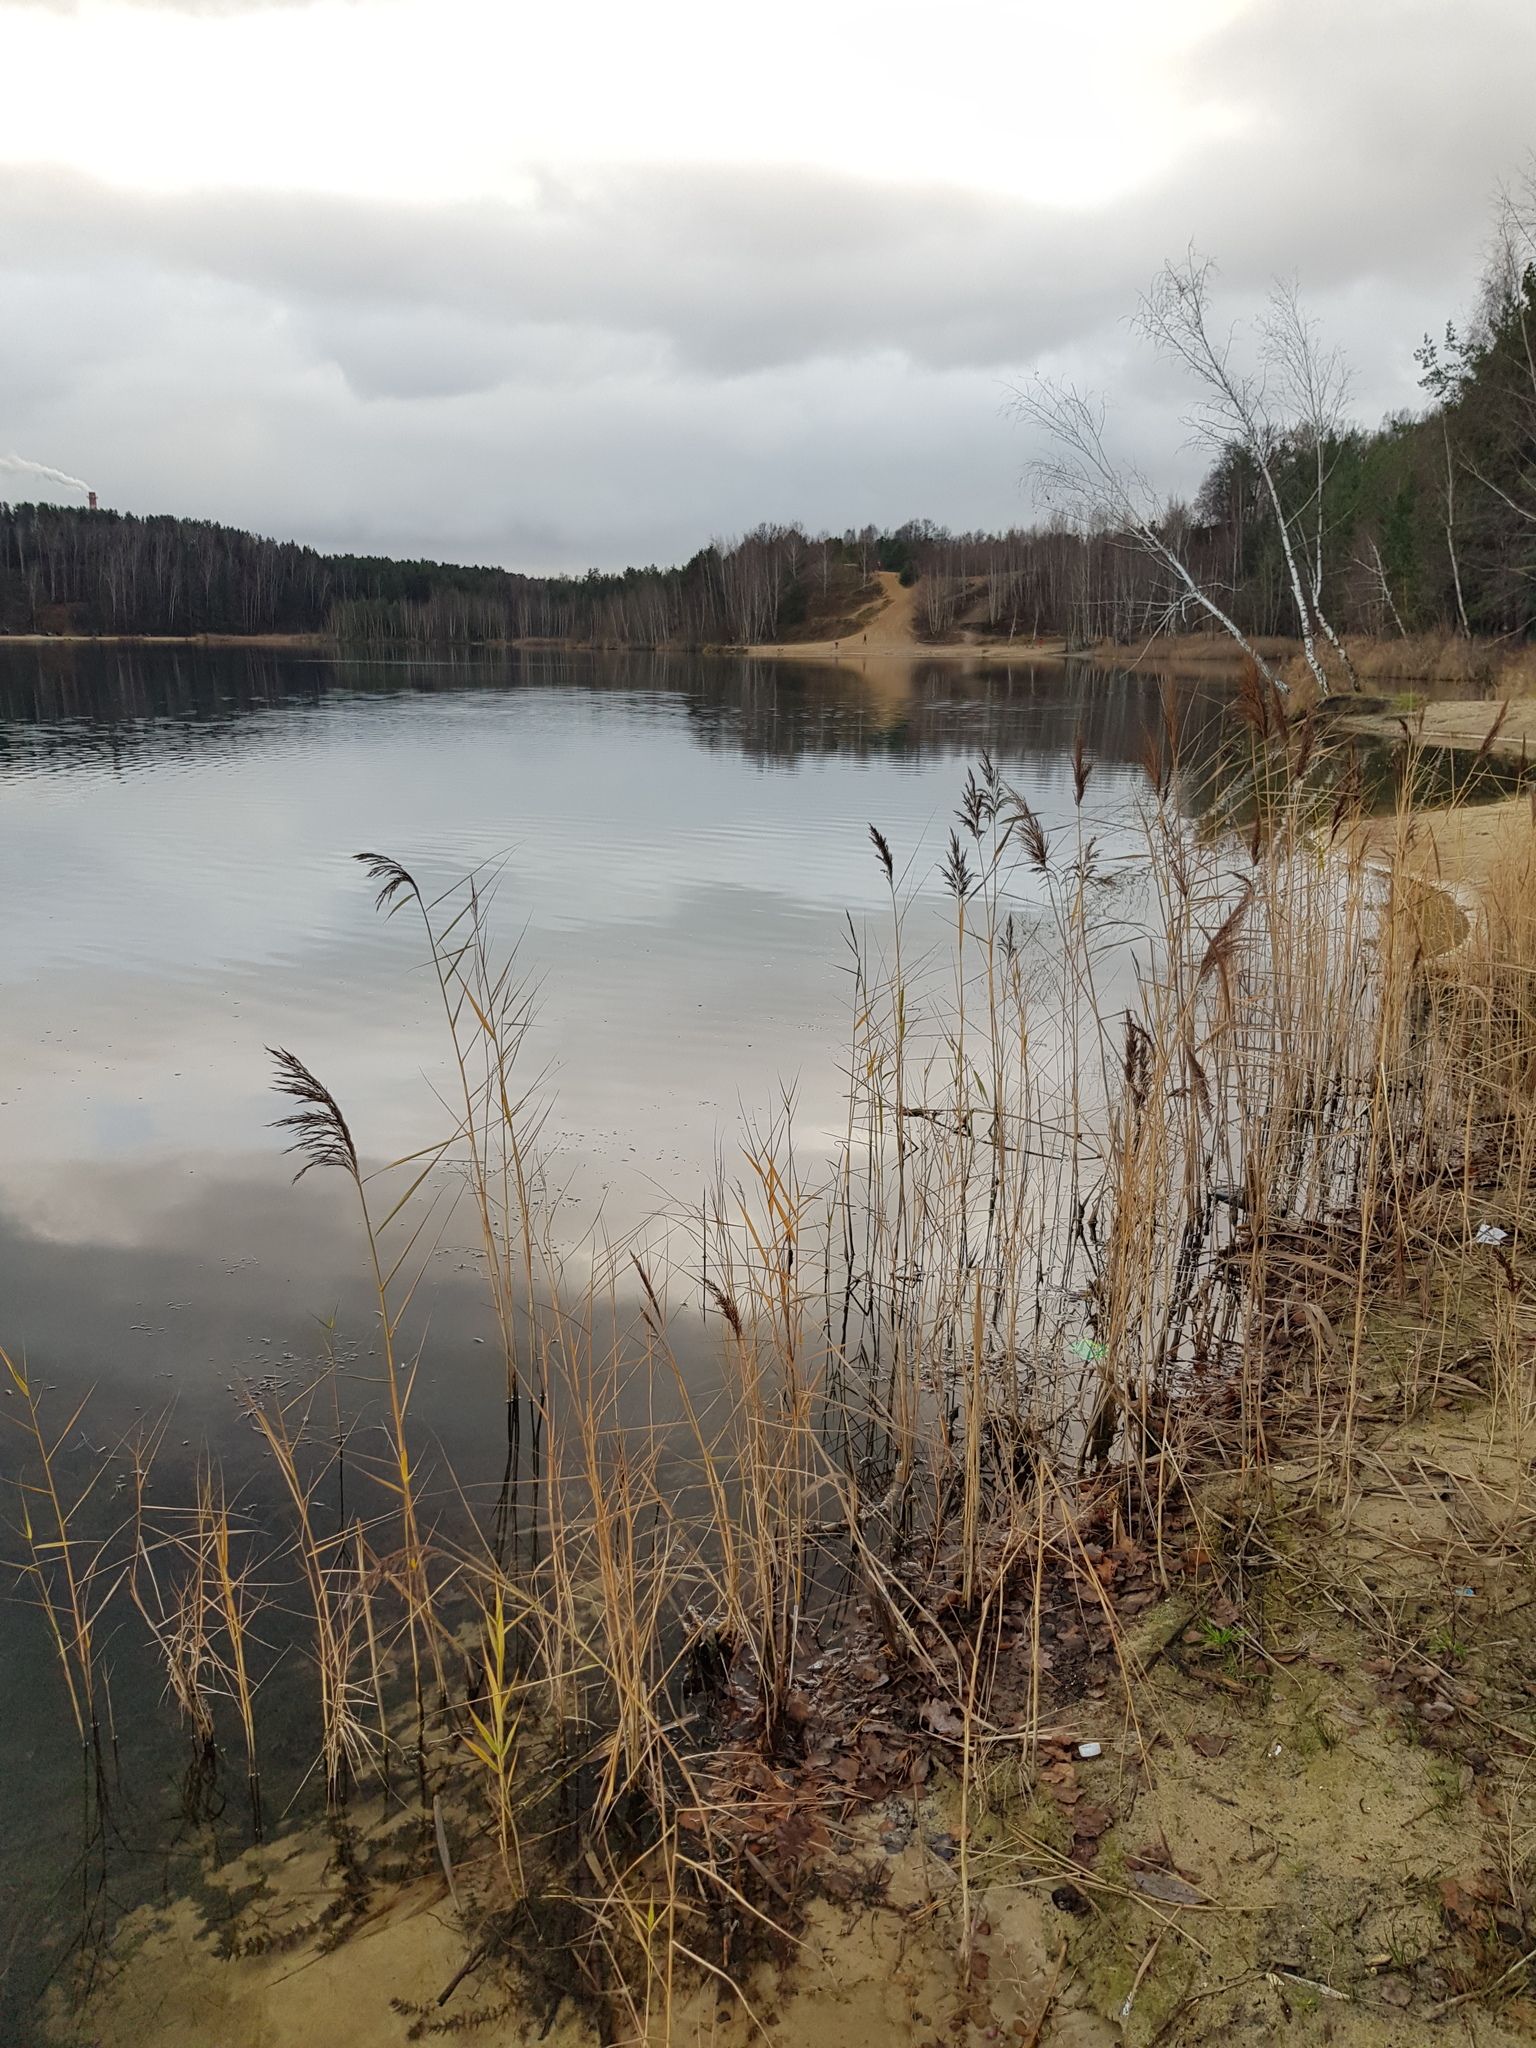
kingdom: Plantae
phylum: Tracheophyta
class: Liliopsida
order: Poales
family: Poaceae
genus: Phragmites
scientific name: Phragmites australis
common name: Common reed
